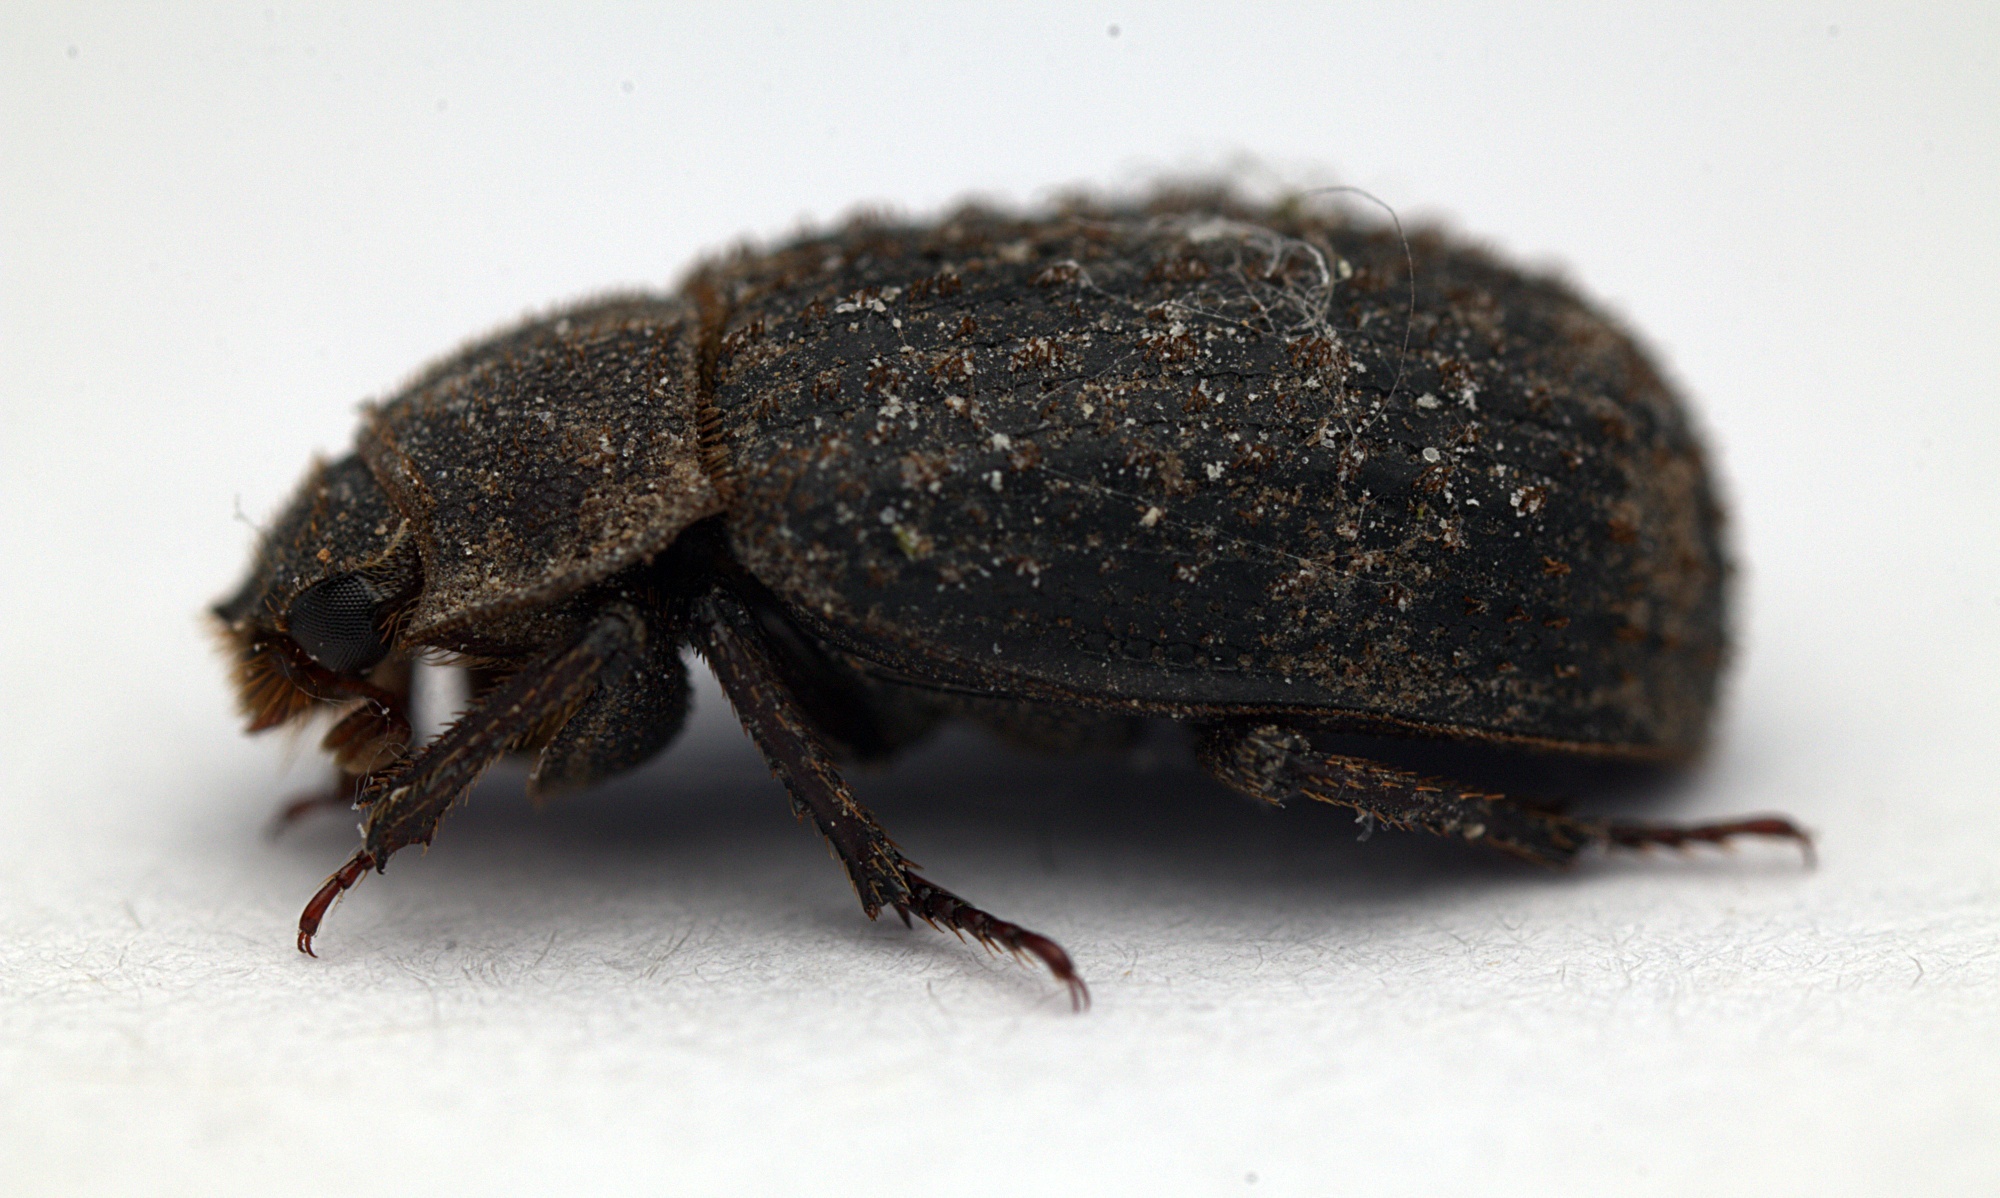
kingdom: Animalia
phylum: Arthropoda
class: Insecta
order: Coleoptera
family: Trogidae
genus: Trox
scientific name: Trox scaber
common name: Hide beetle
